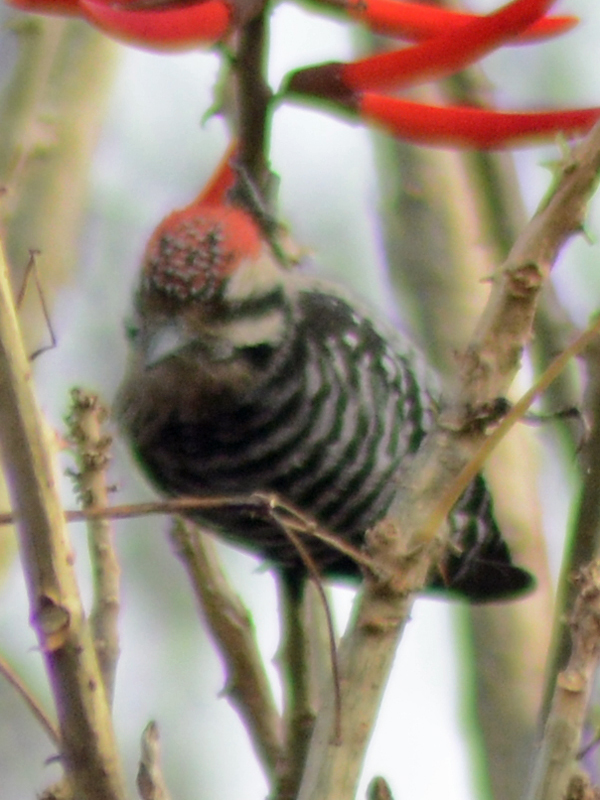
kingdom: Animalia
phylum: Chordata
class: Aves
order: Piciformes
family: Picidae
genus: Dryobates
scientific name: Dryobates scalaris
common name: Ladder-backed woodpecker
